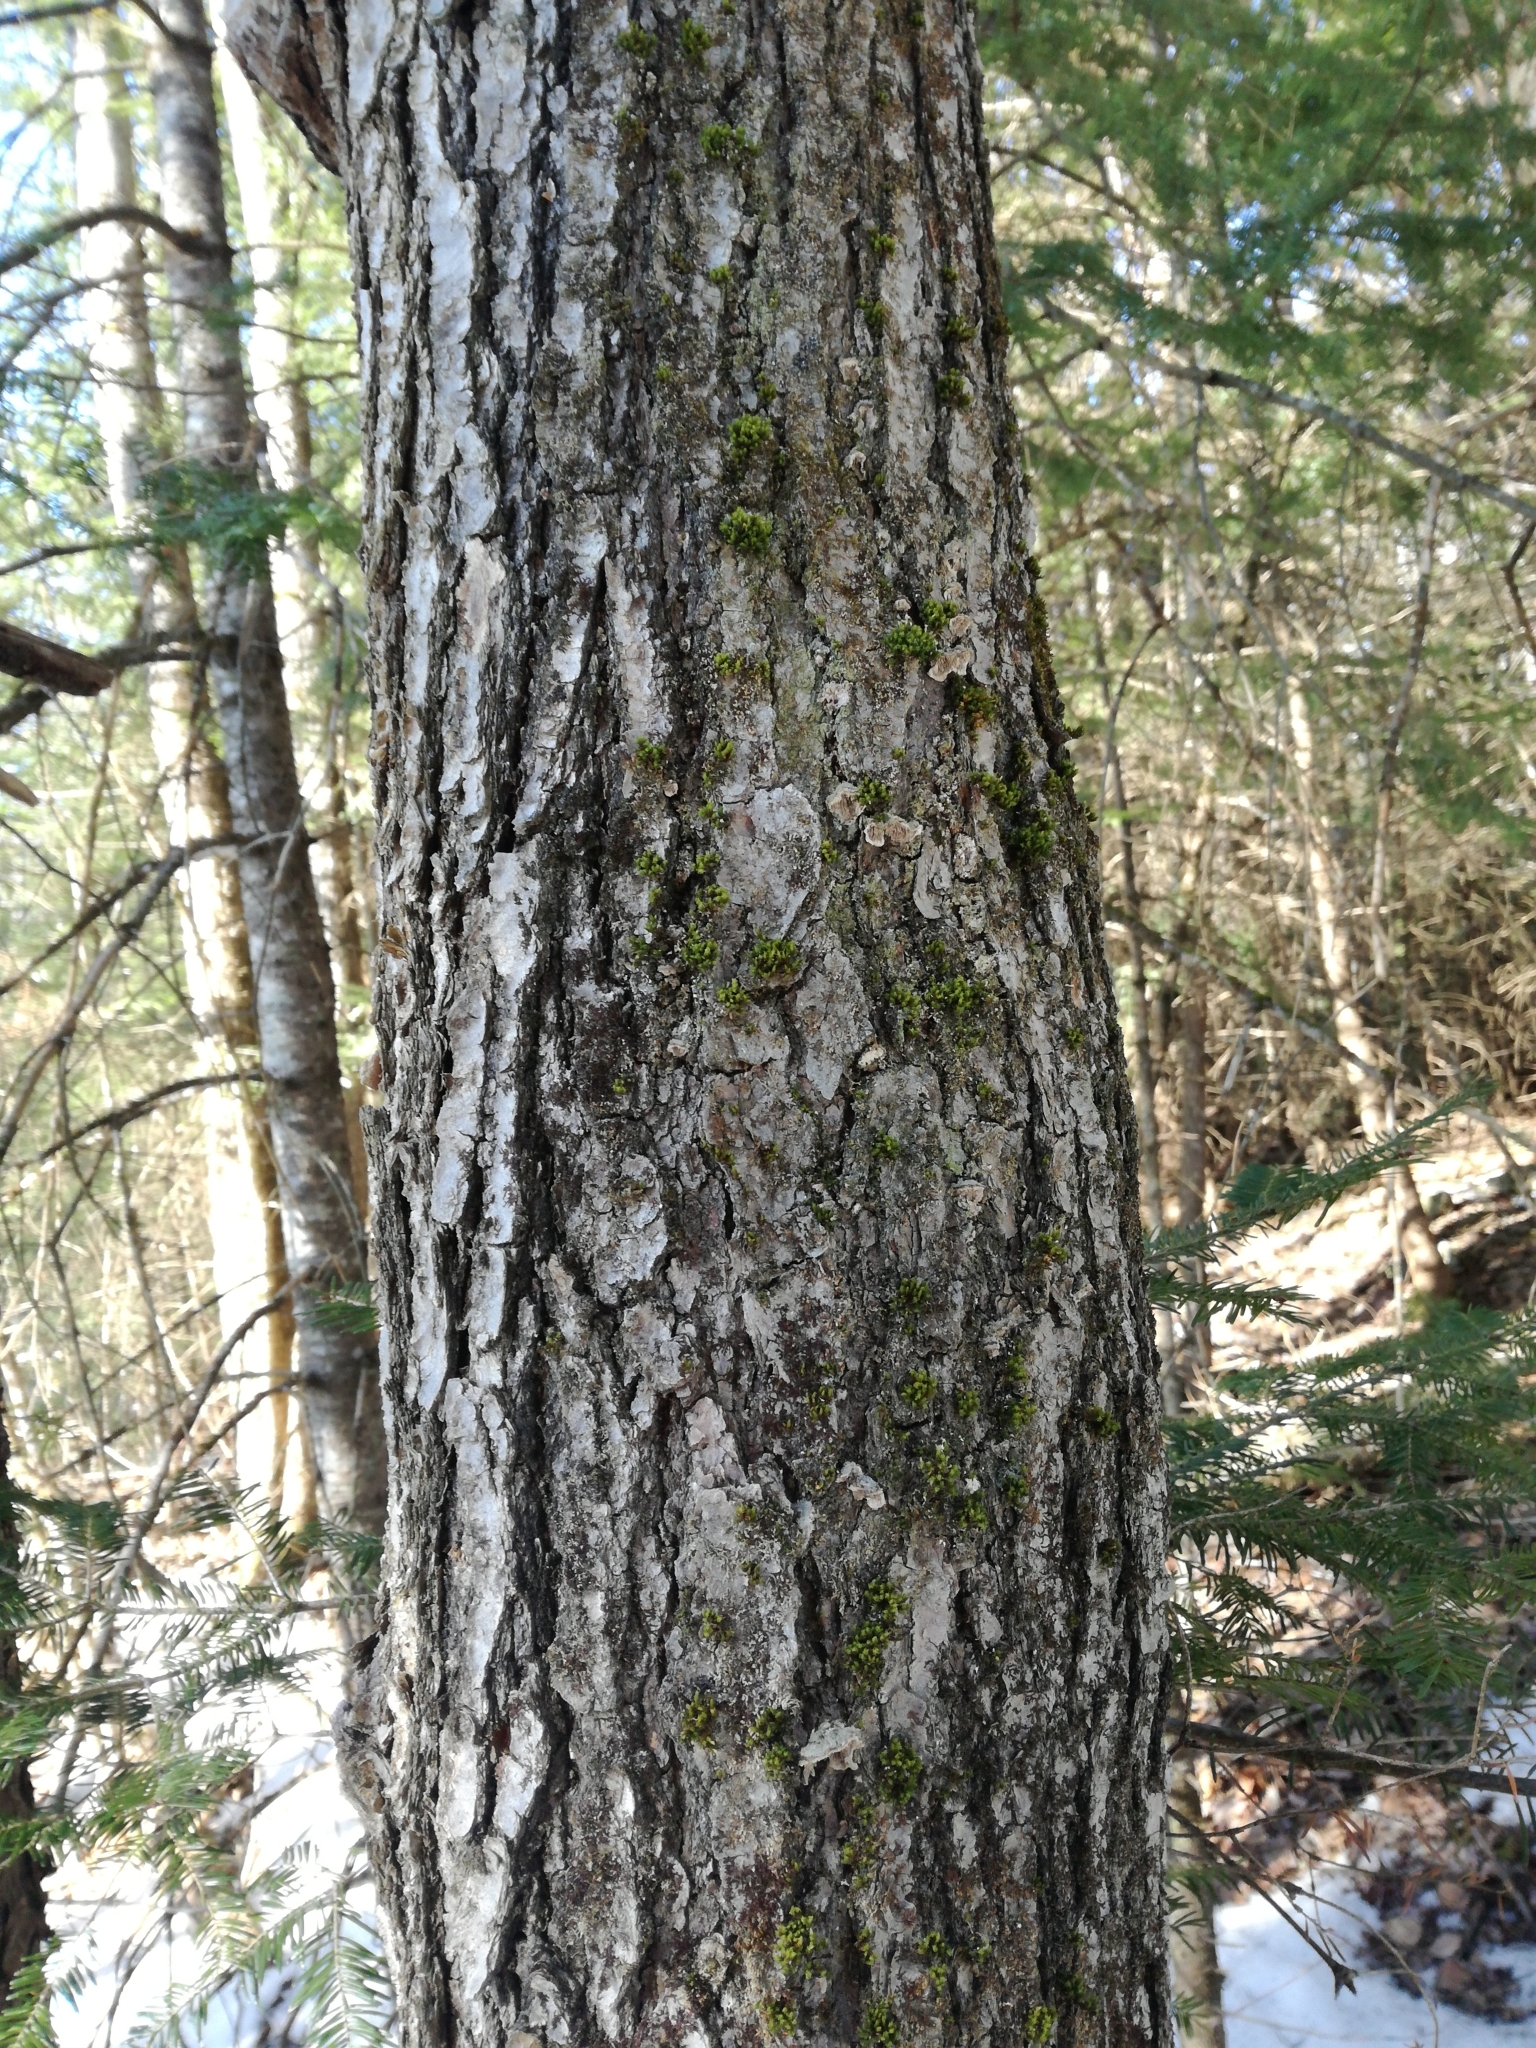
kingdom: Plantae
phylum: Bryophyta
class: Bryopsida
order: Orthotrichales
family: Orthotrichaceae
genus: Ulota
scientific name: Ulota crispa
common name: Crisped pincushion moss
